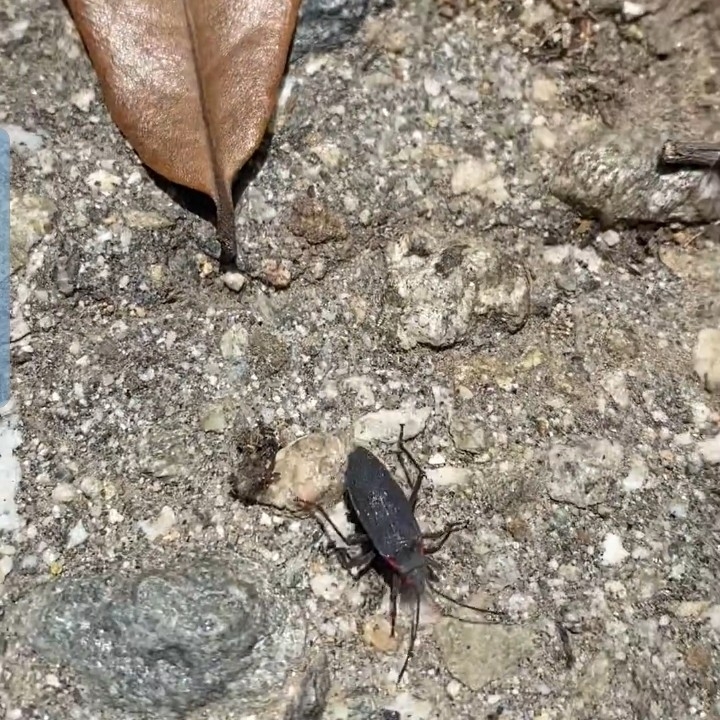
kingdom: Animalia
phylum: Arthropoda
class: Insecta
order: Hemiptera
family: Rhopalidae
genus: Jadera
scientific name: Jadera haematoloma
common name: Red-shouldered bug
